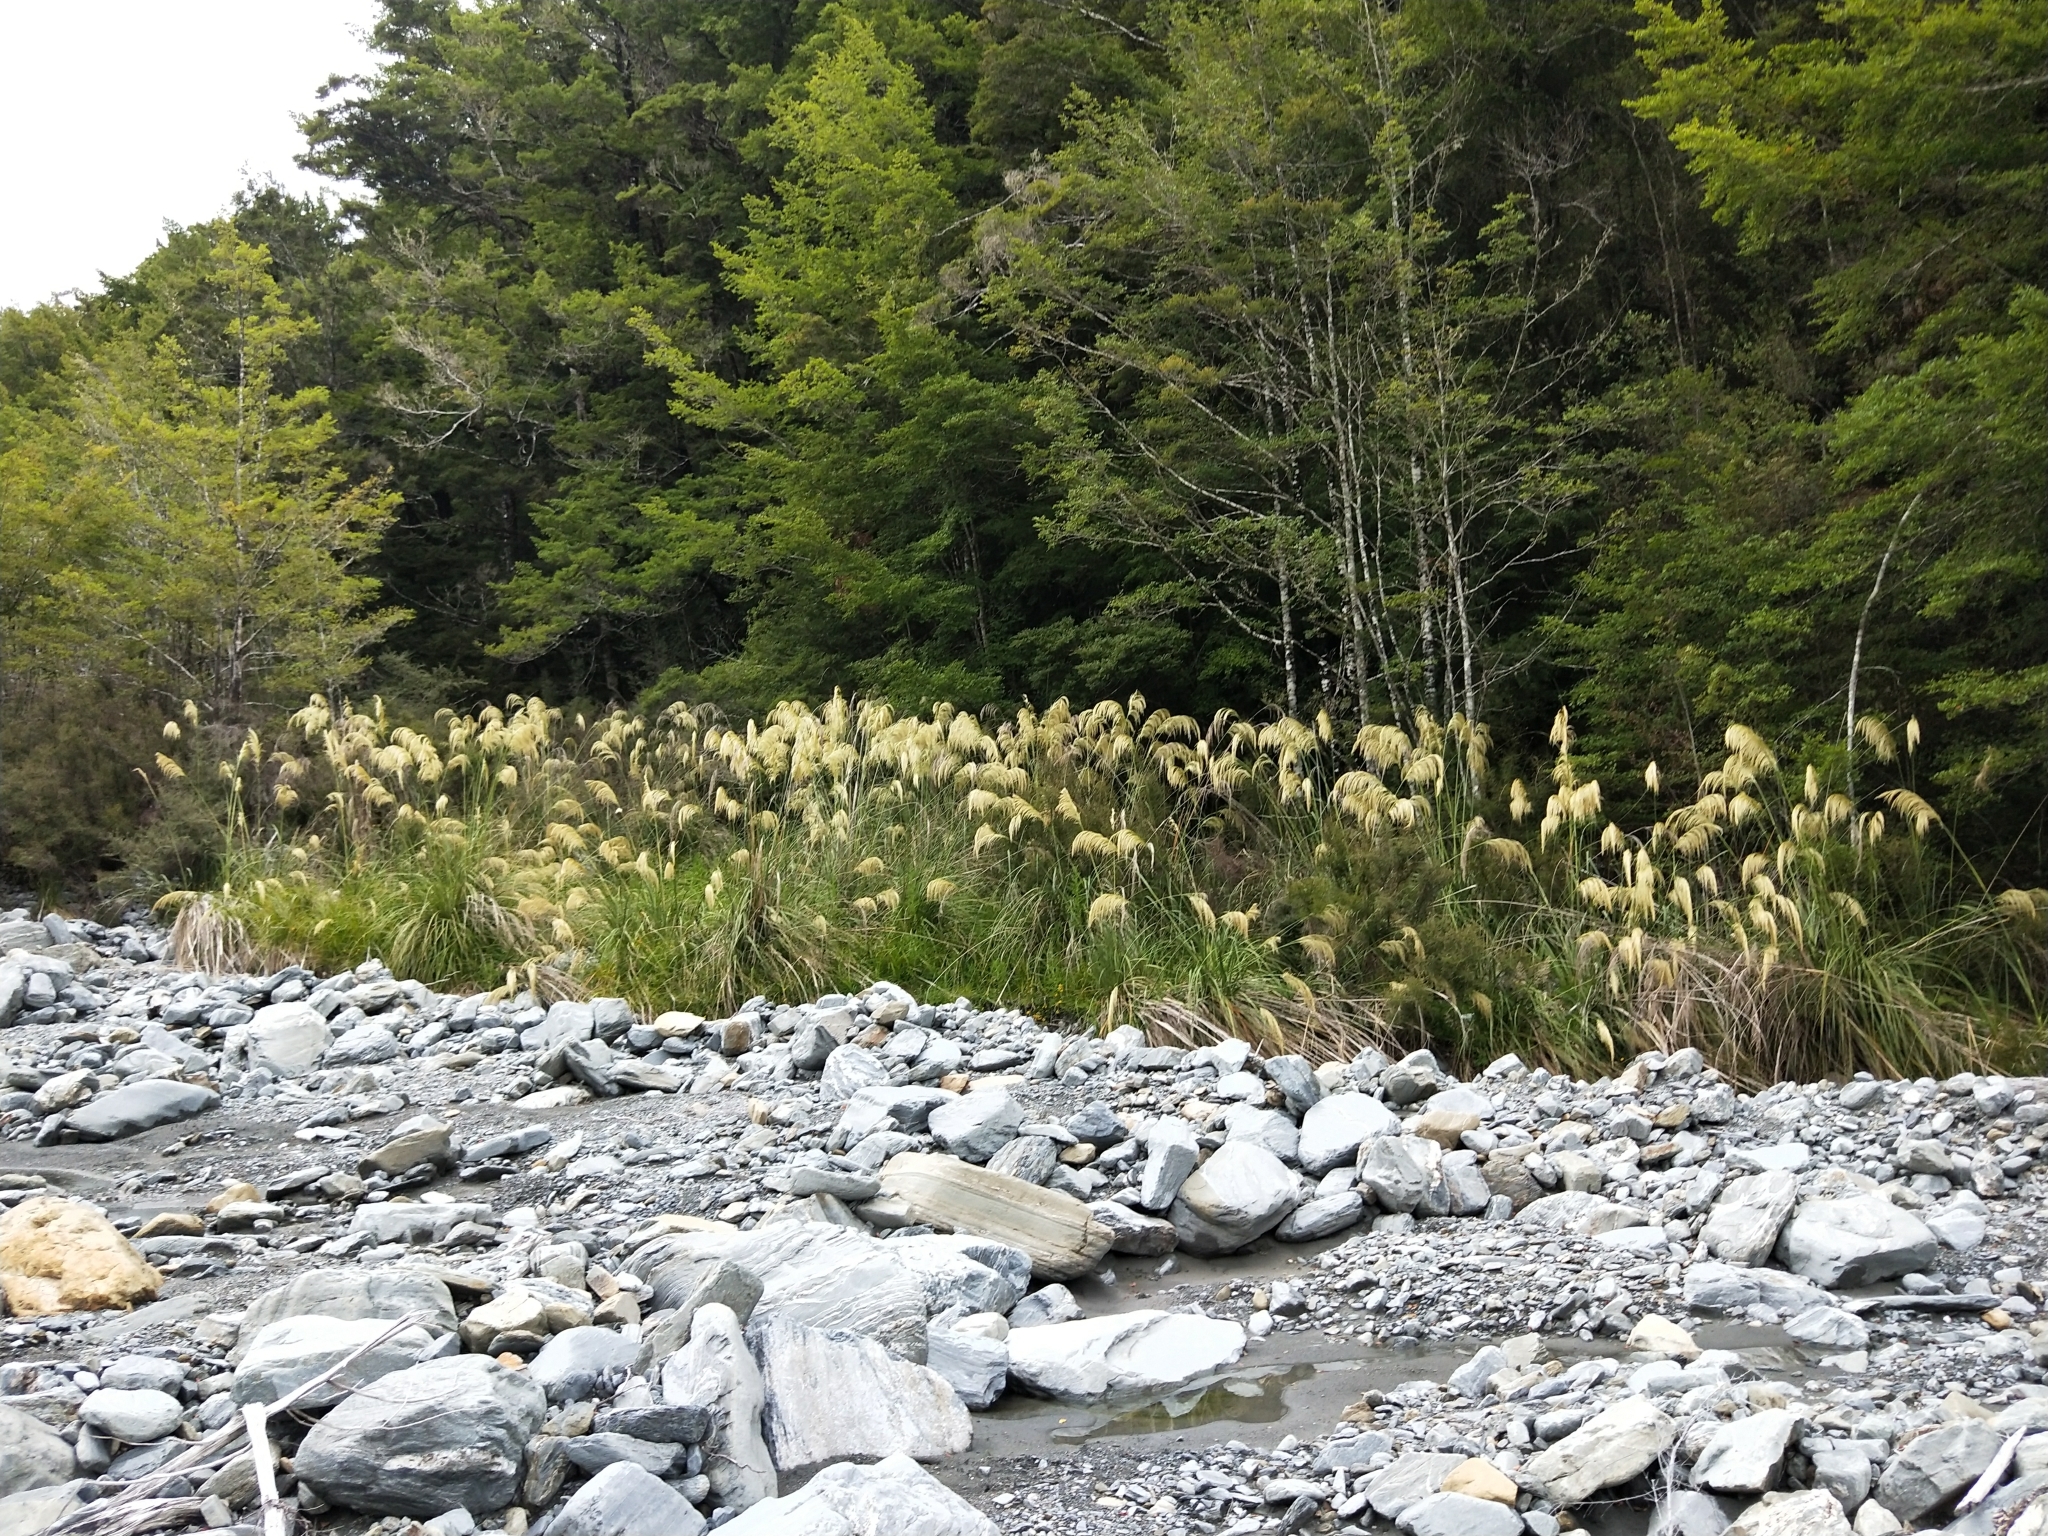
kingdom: Plantae
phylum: Tracheophyta
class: Liliopsida
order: Poales
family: Poaceae
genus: Austroderia
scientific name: Austroderia richardii
